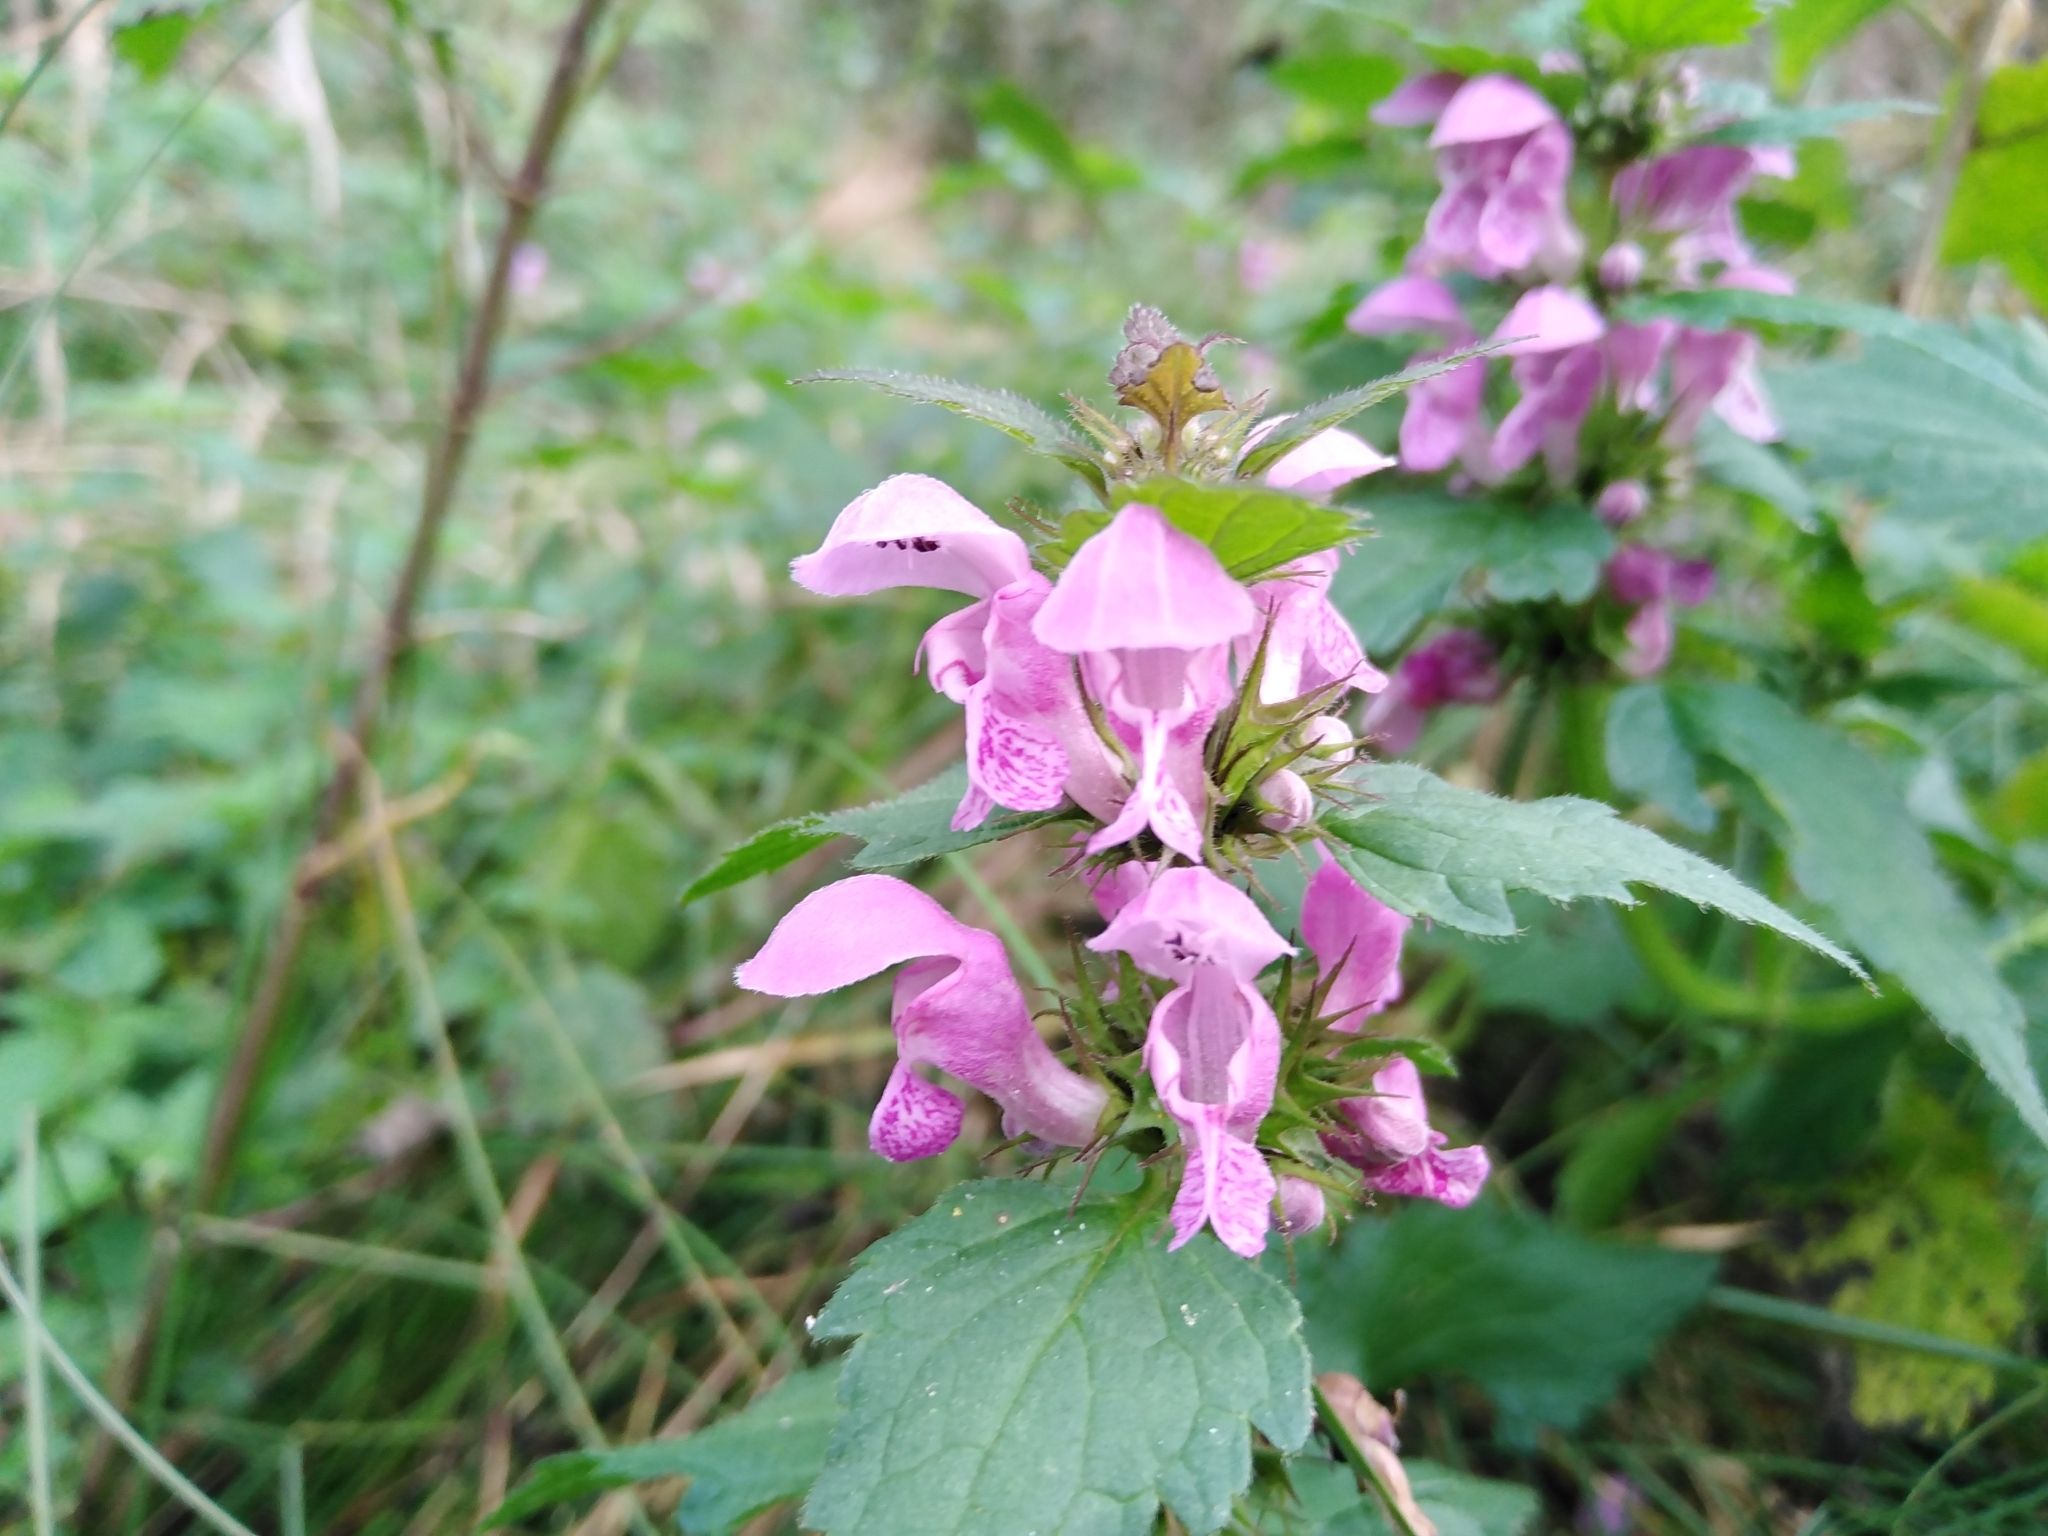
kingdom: Plantae
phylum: Tracheophyta
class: Magnoliopsida
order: Lamiales
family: Lamiaceae
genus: Lamium
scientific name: Lamium maculatum
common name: Spotted dead-nettle
